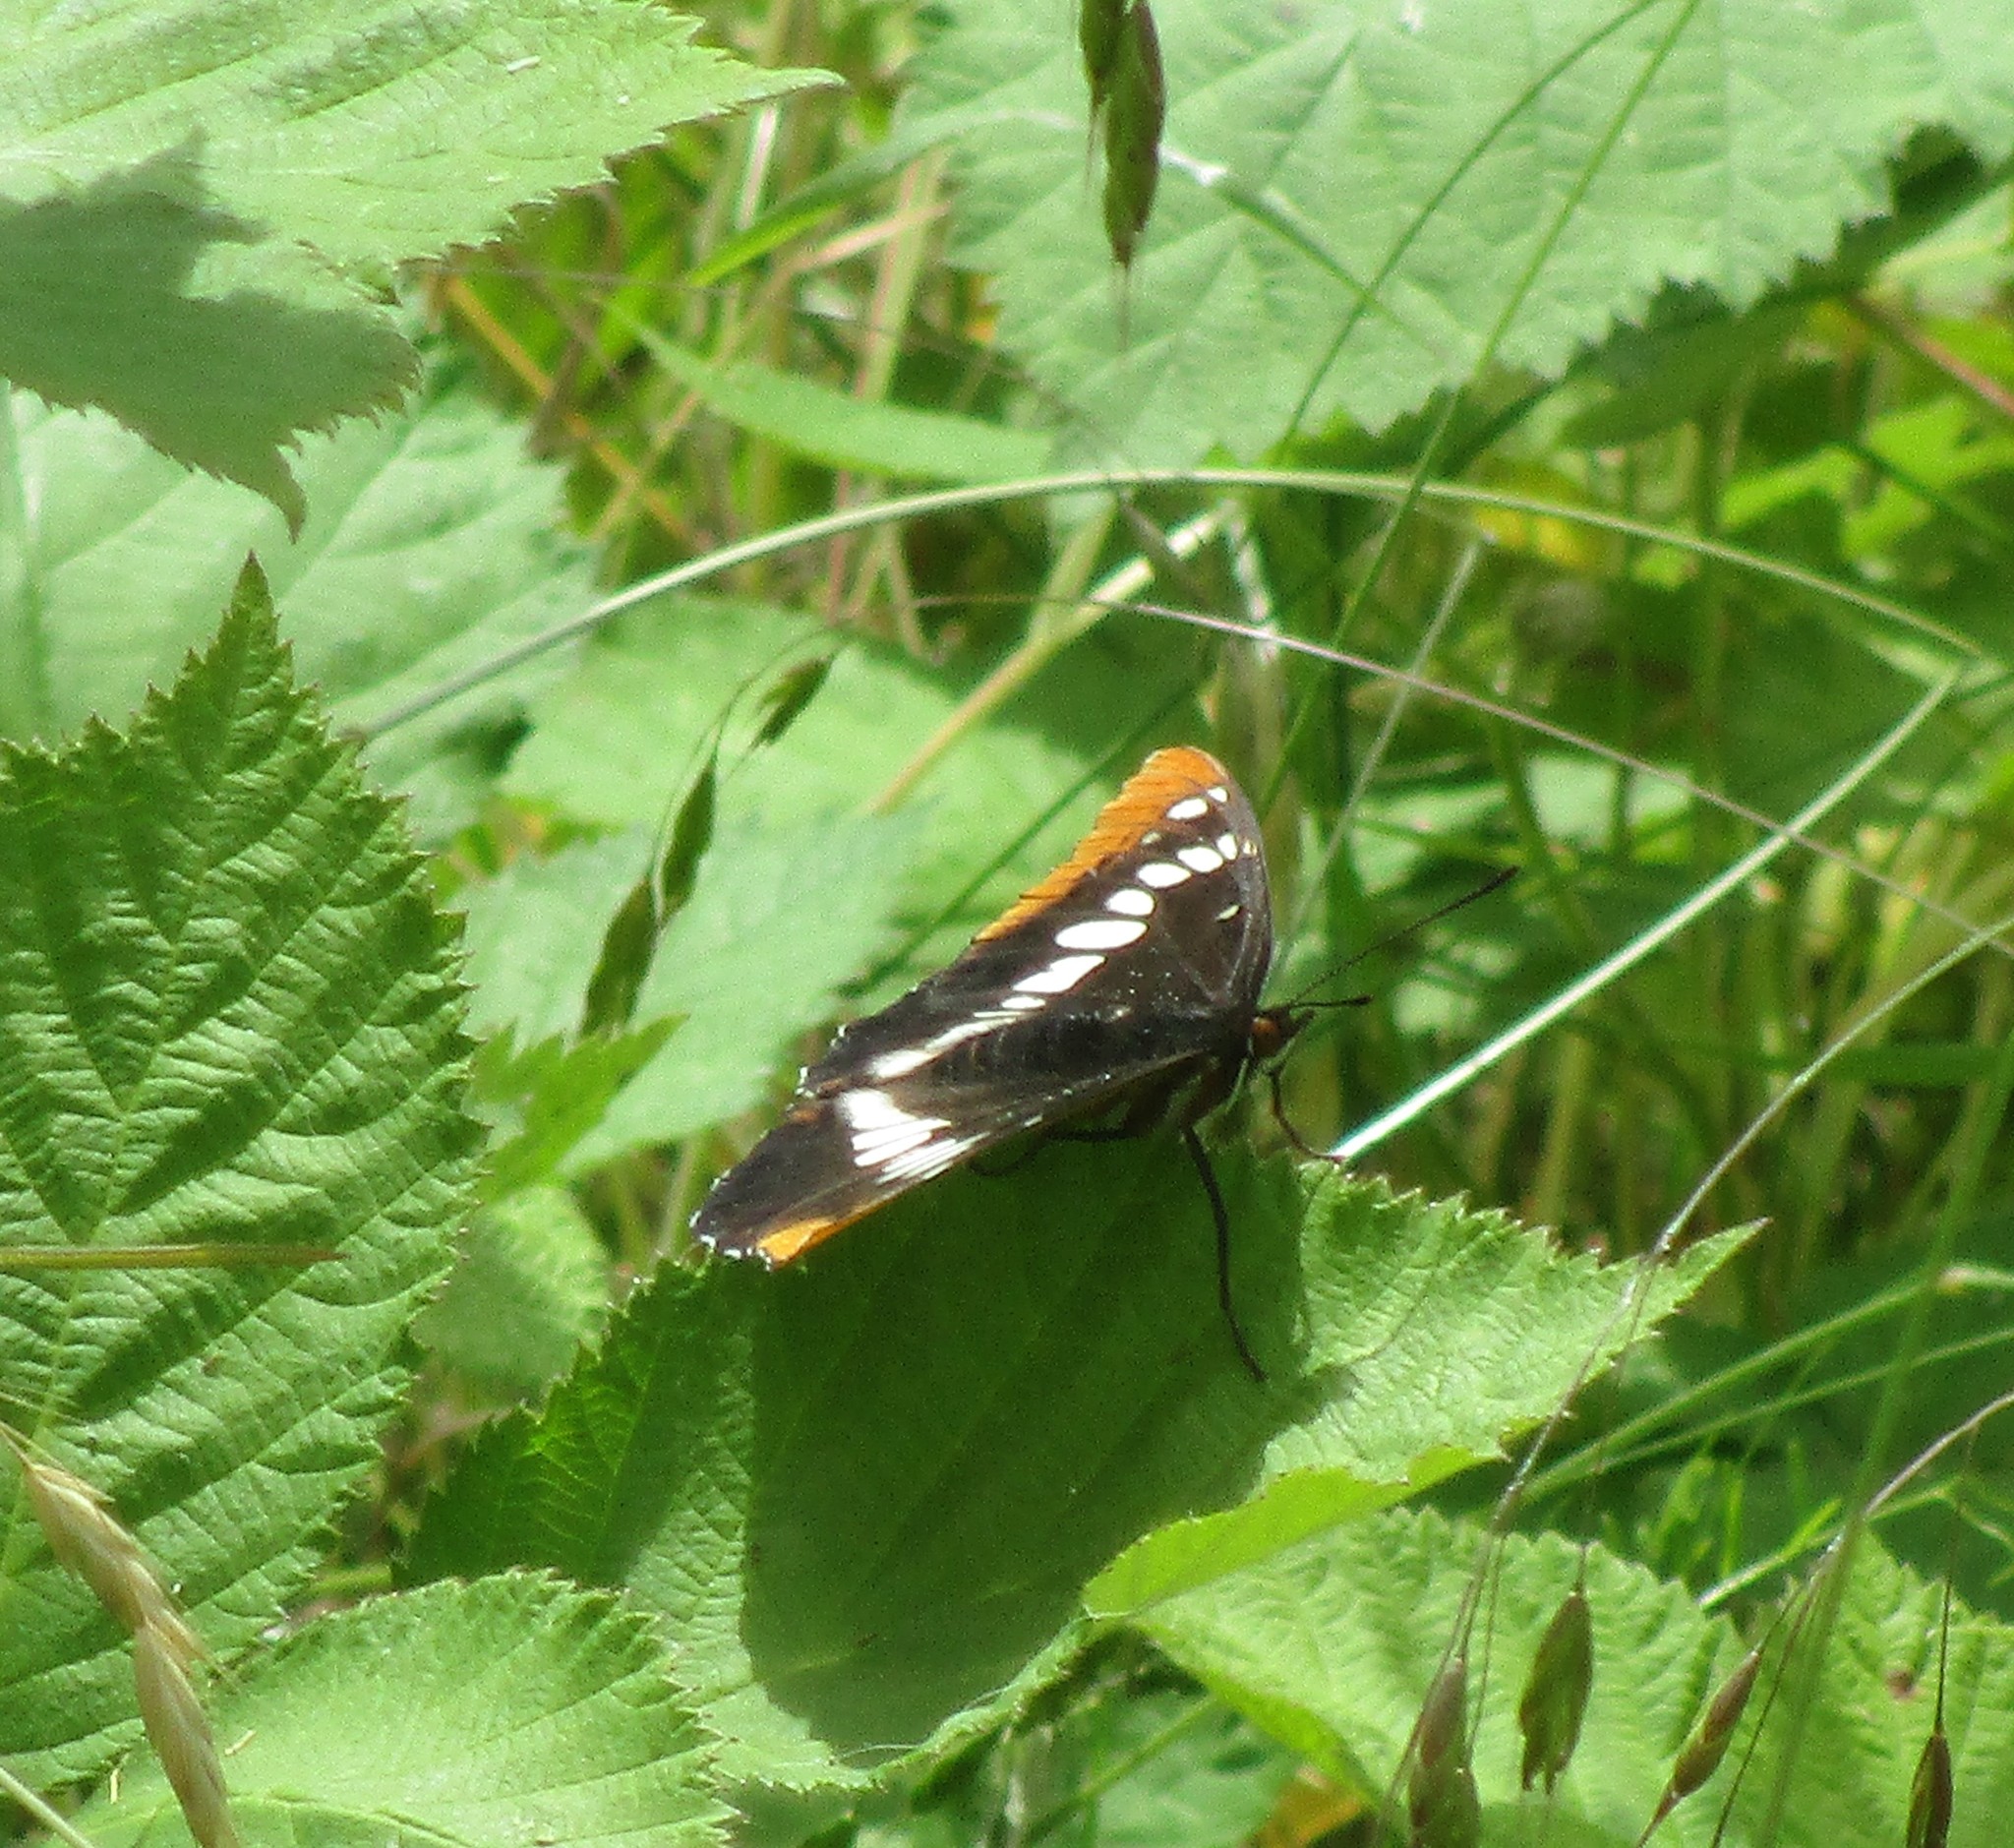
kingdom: Animalia
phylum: Arthropoda
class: Insecta
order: Lepidoptera
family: Nymphalidae
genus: Limenitis
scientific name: Limenitis lorquini
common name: Lorquin's admiral
